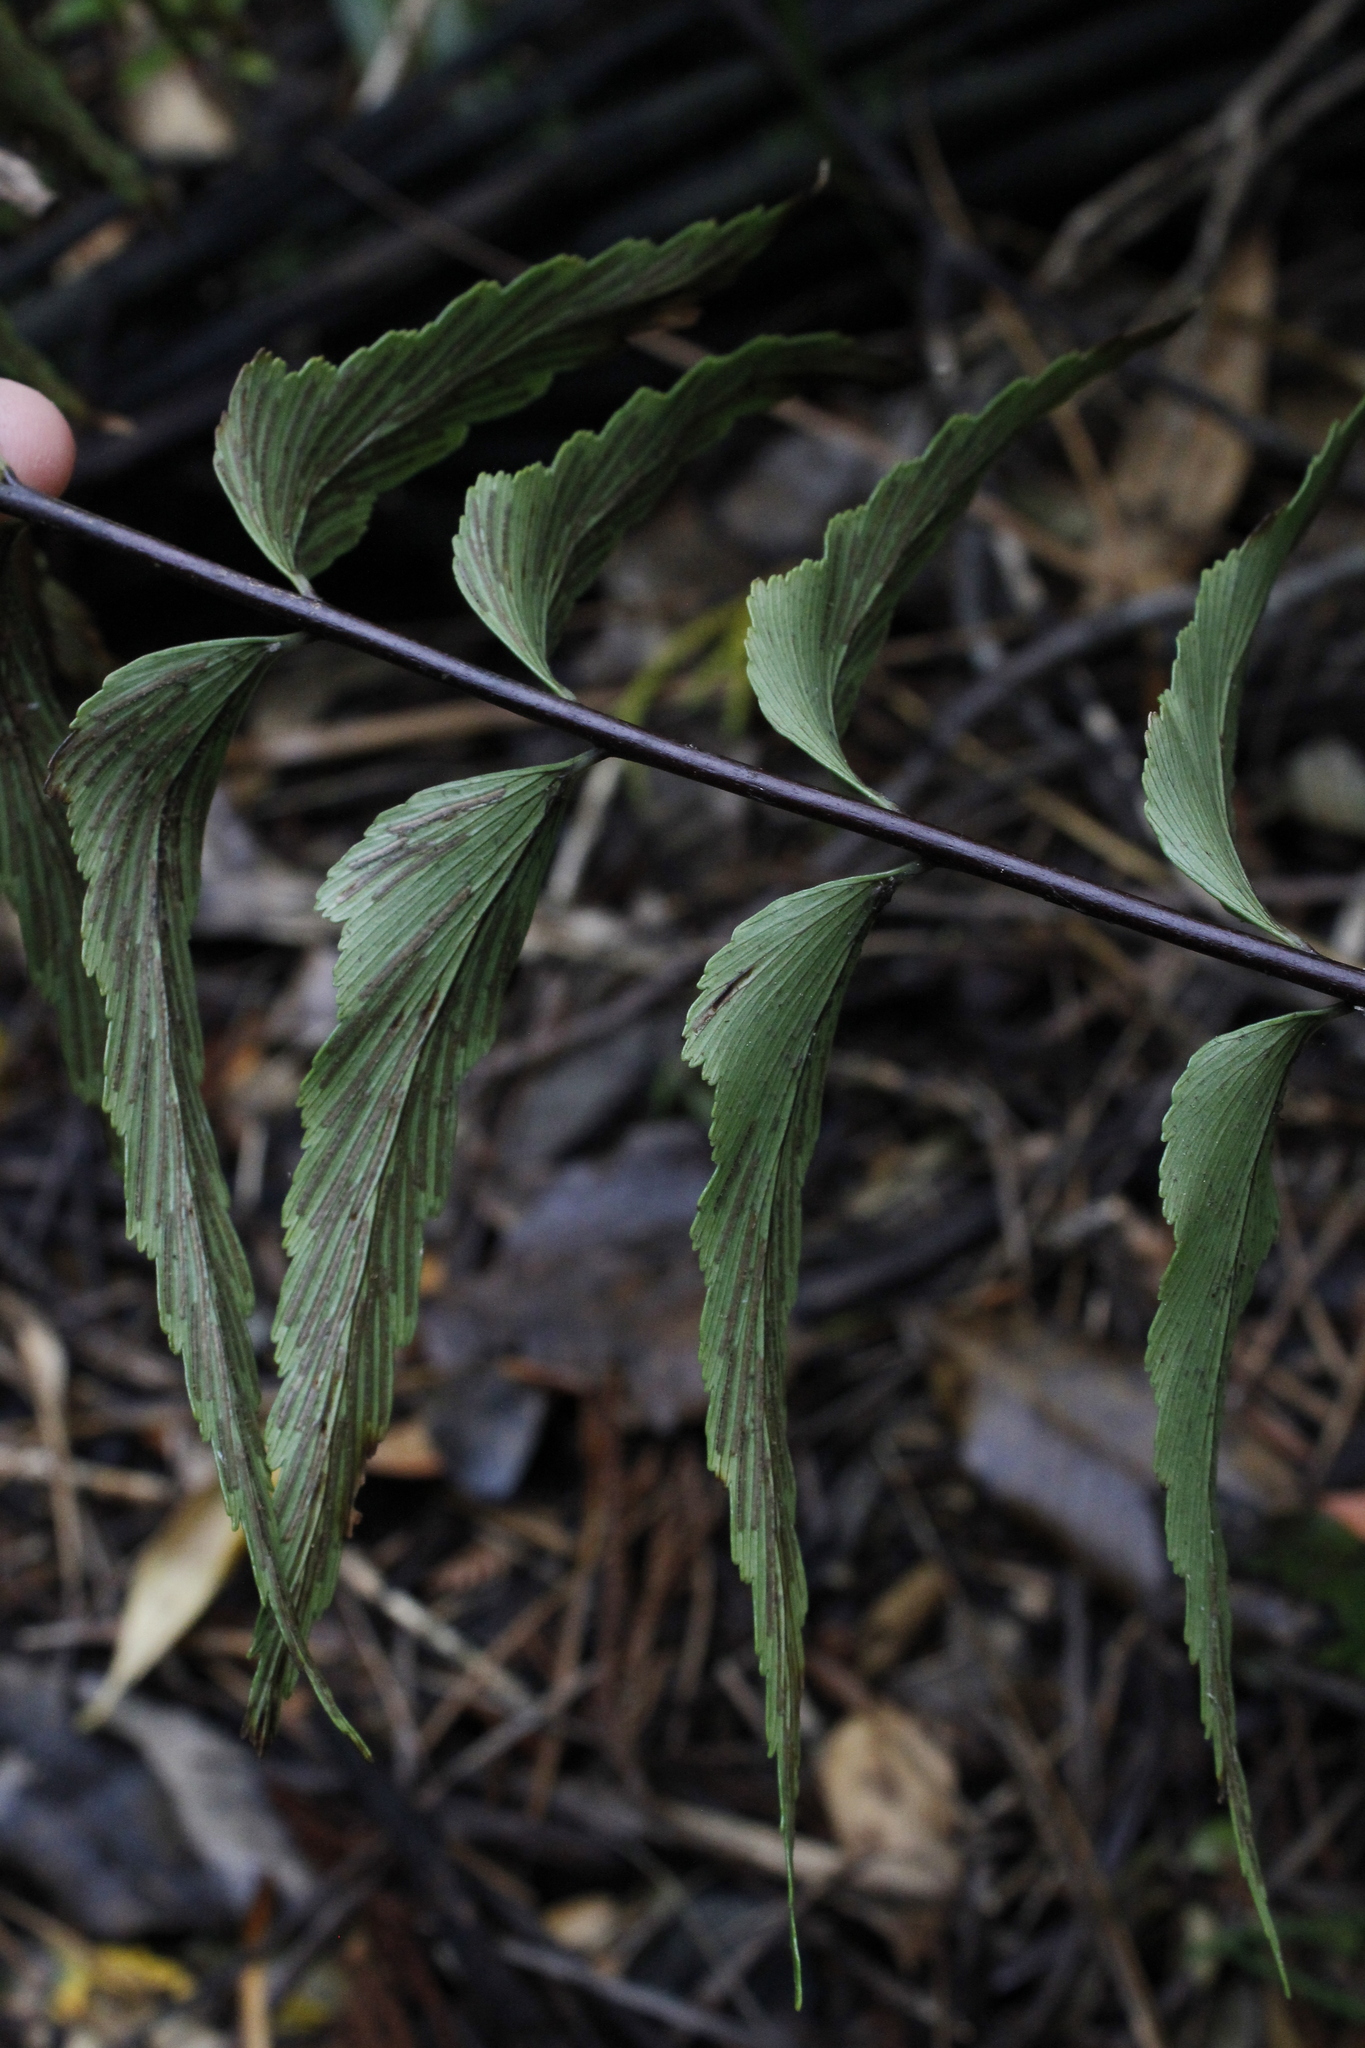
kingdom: Plantae
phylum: Tracheophyta
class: Polypodiopsida
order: Polypodiales
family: Aspleniaceae
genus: Asplenium
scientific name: Asplenium polyodon
